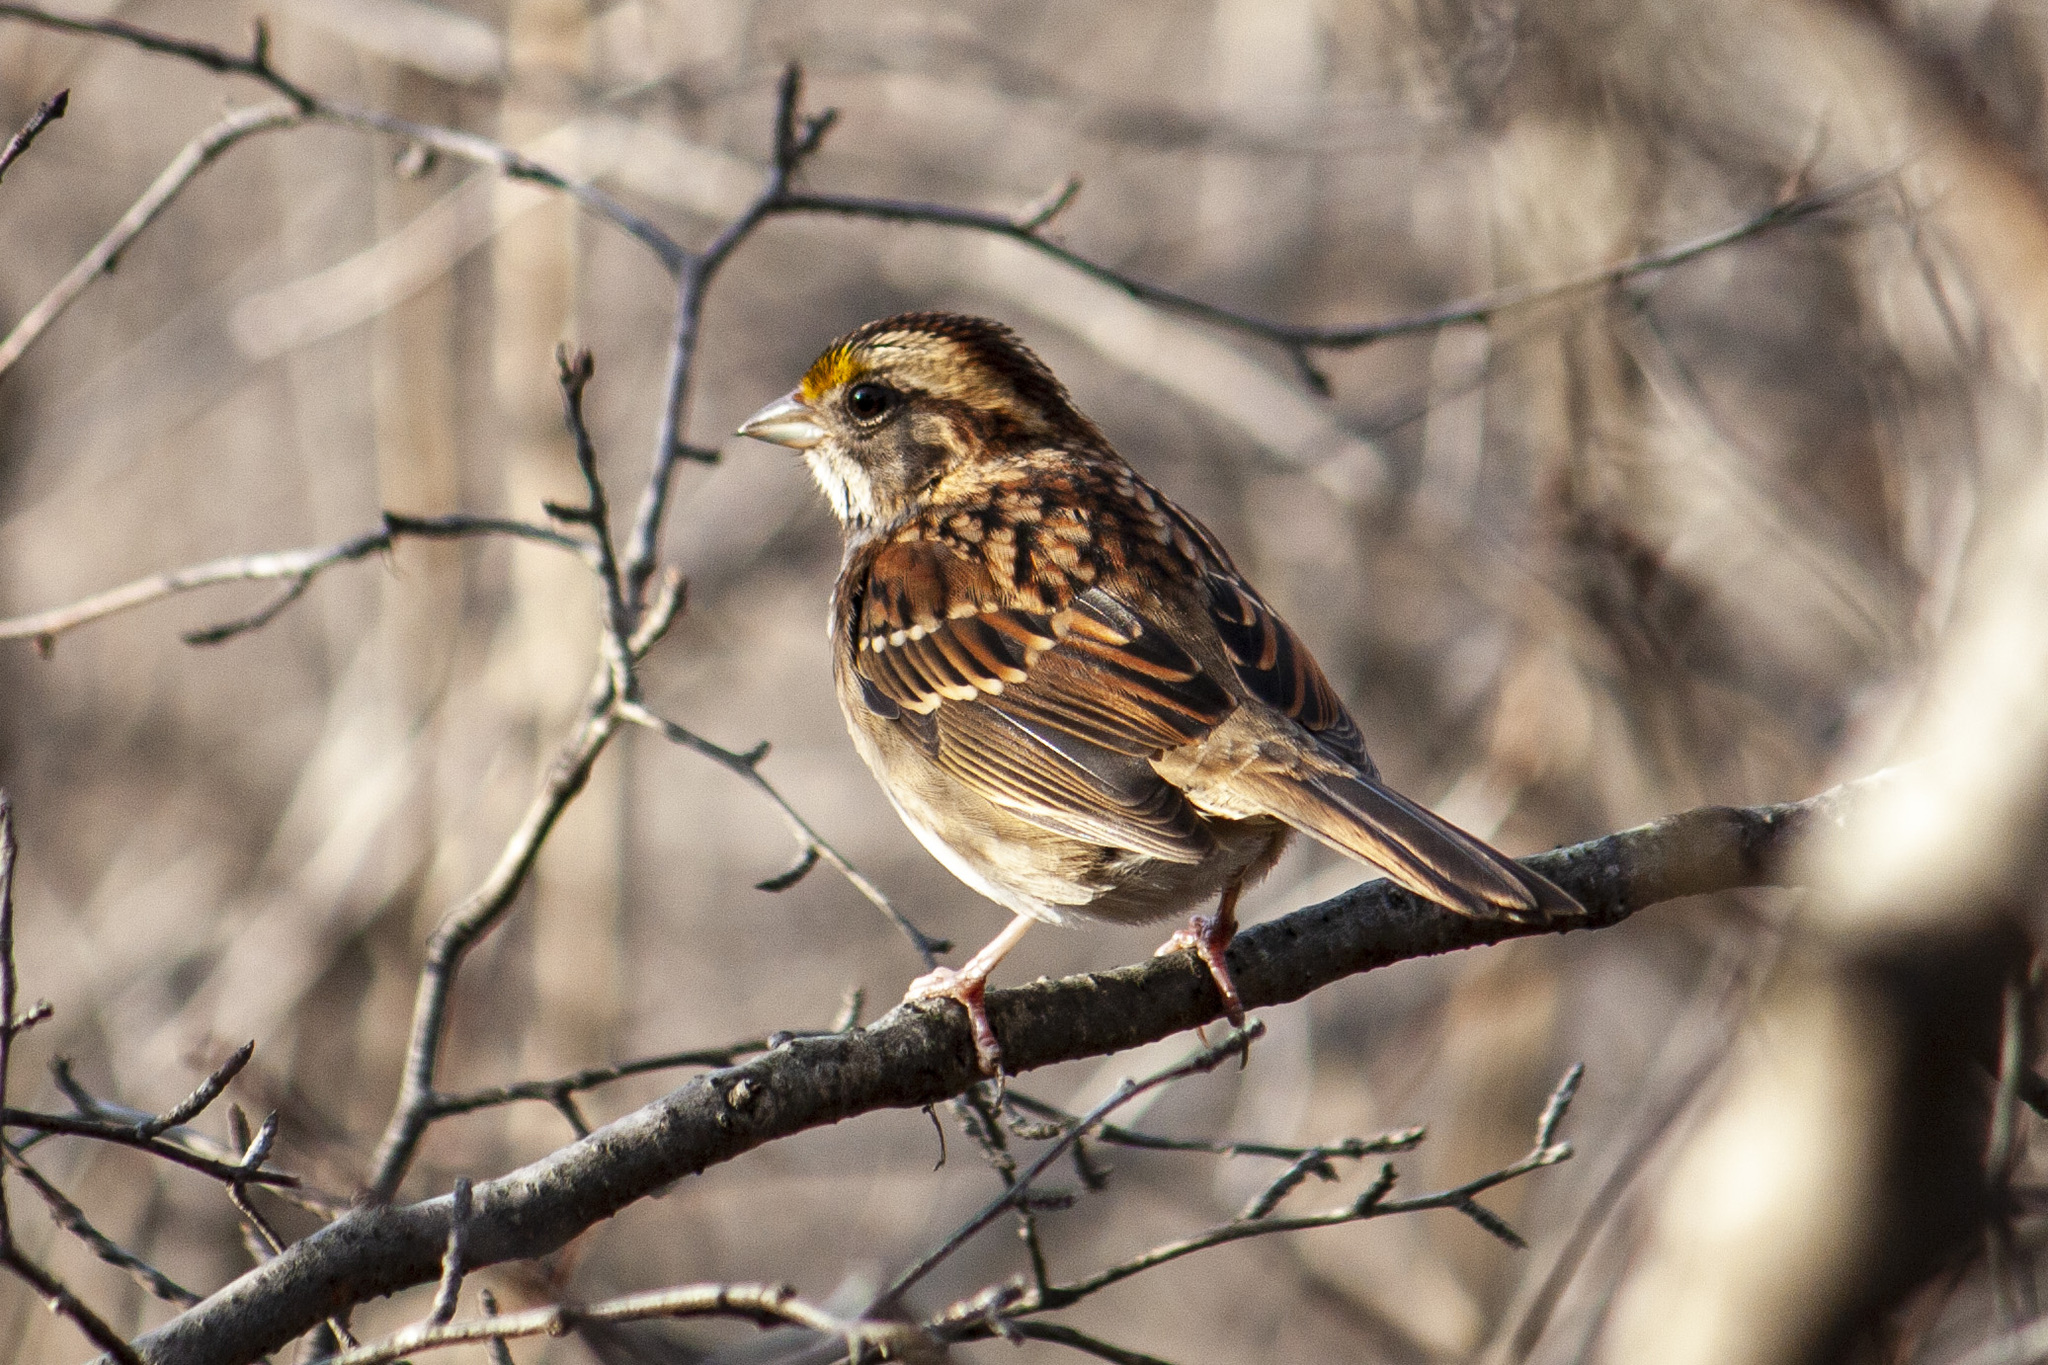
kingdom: Animalia
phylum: Chordata
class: Aves
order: Passeriformes
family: Passerellidae
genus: Zonotrichia
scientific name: Zonotrichia albicollis
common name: White-throated sparrow
